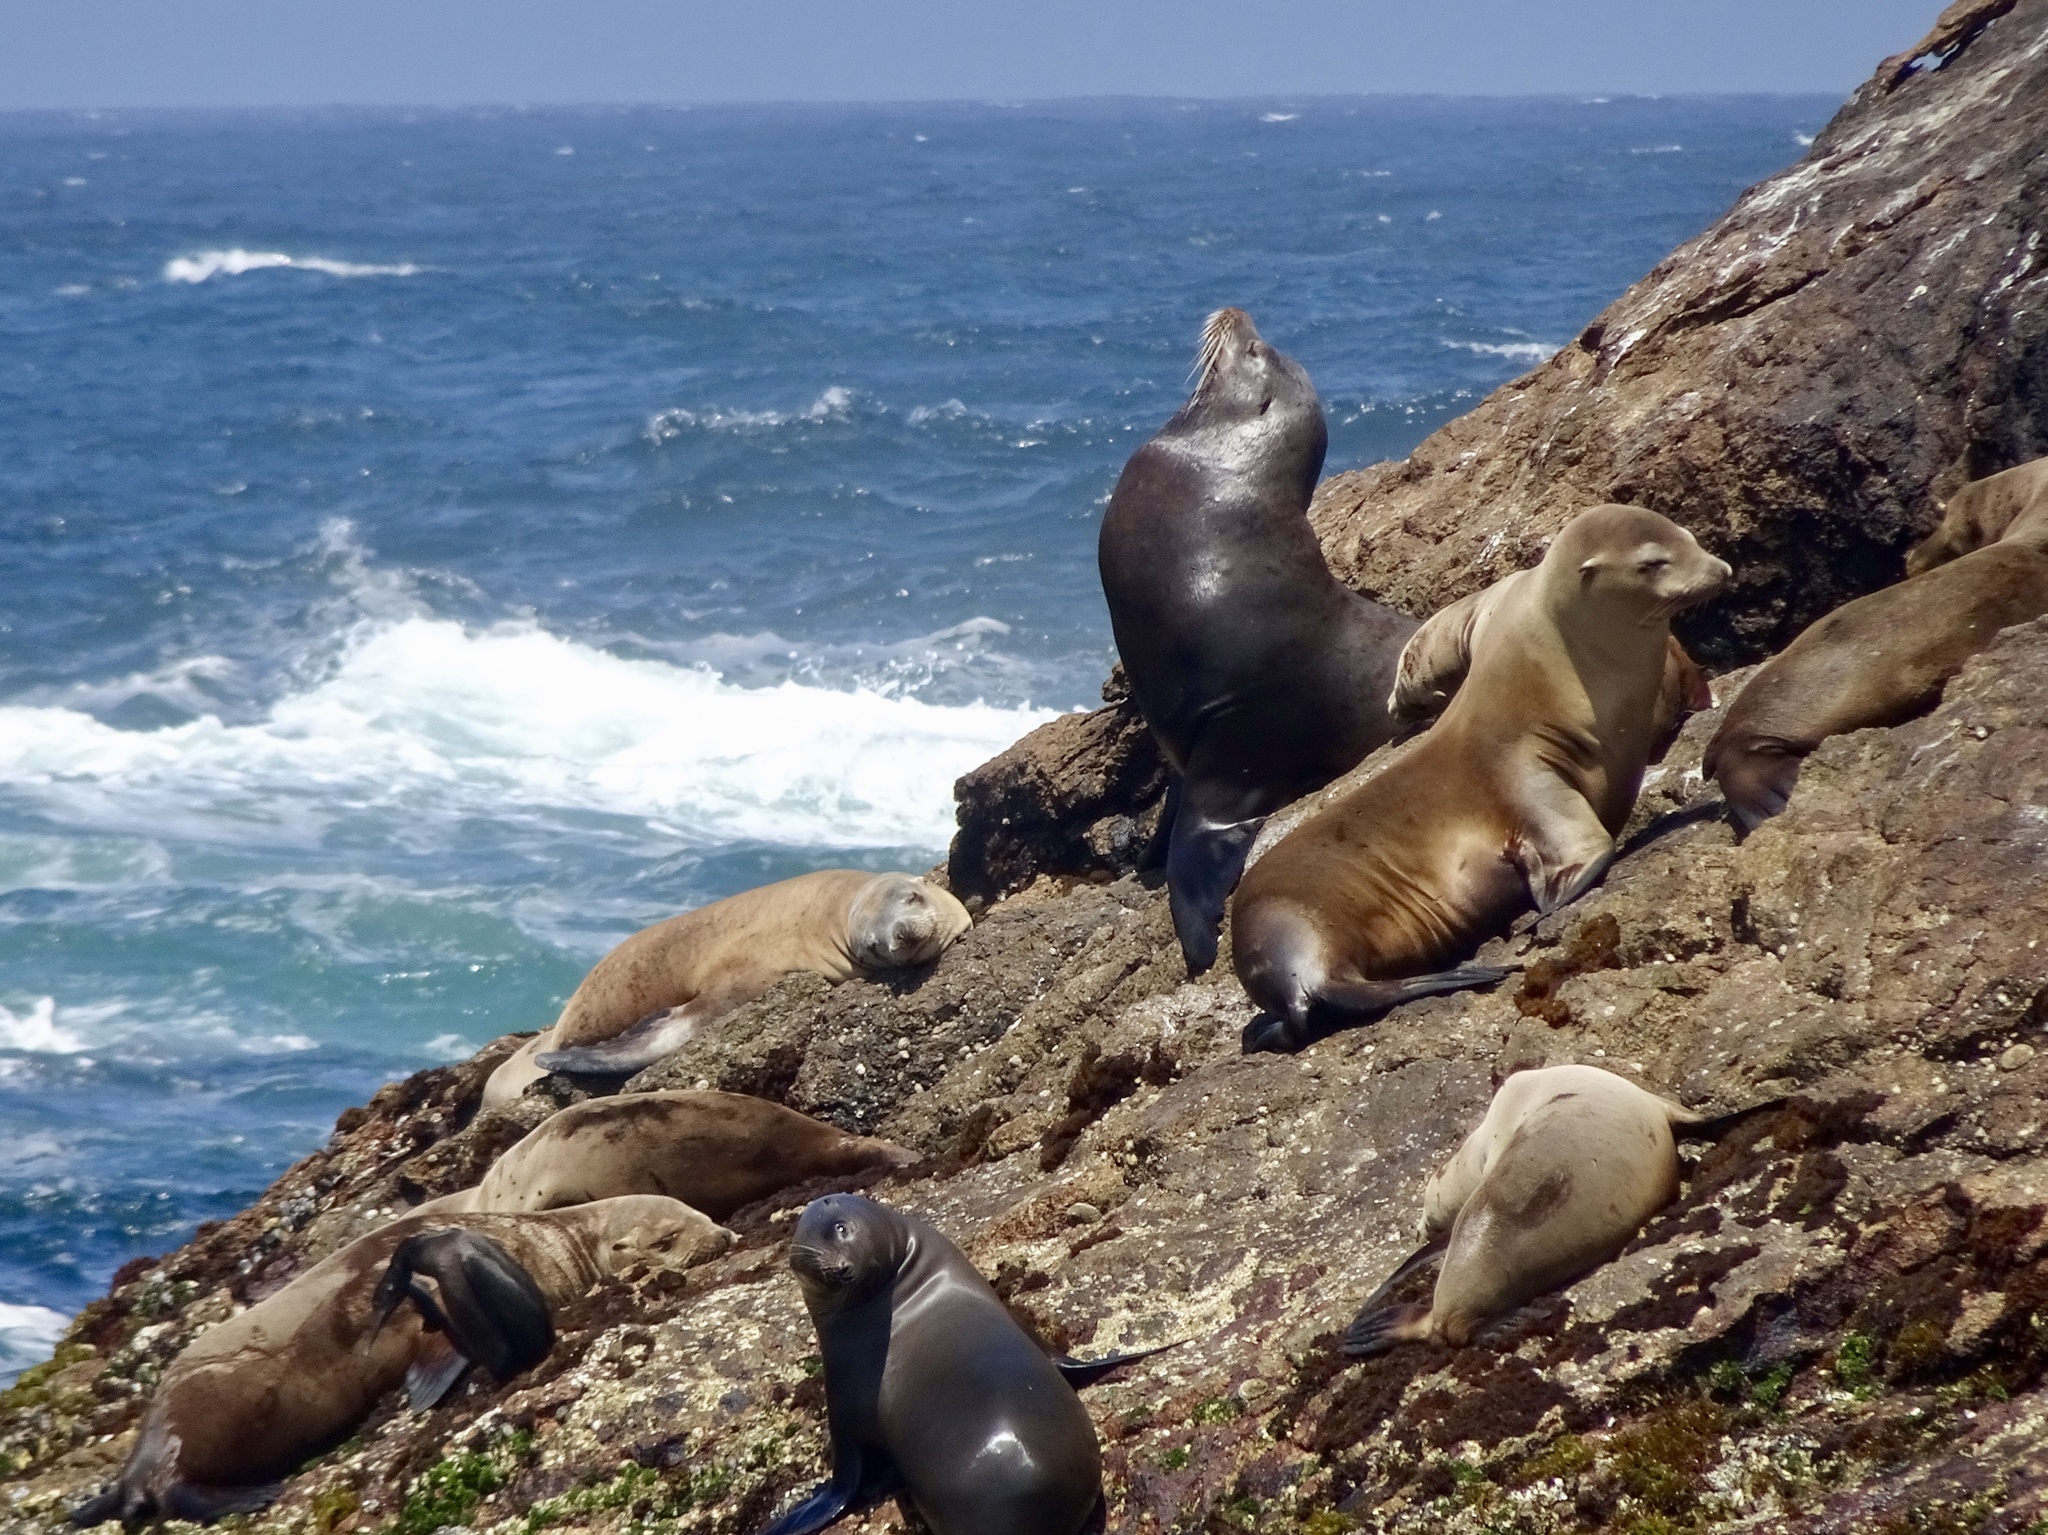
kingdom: Animalia
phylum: Chordata
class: Mammalia
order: Carnivora
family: Otariidae
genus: Zalophus
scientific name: Zalophus californianus
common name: California sea lion
